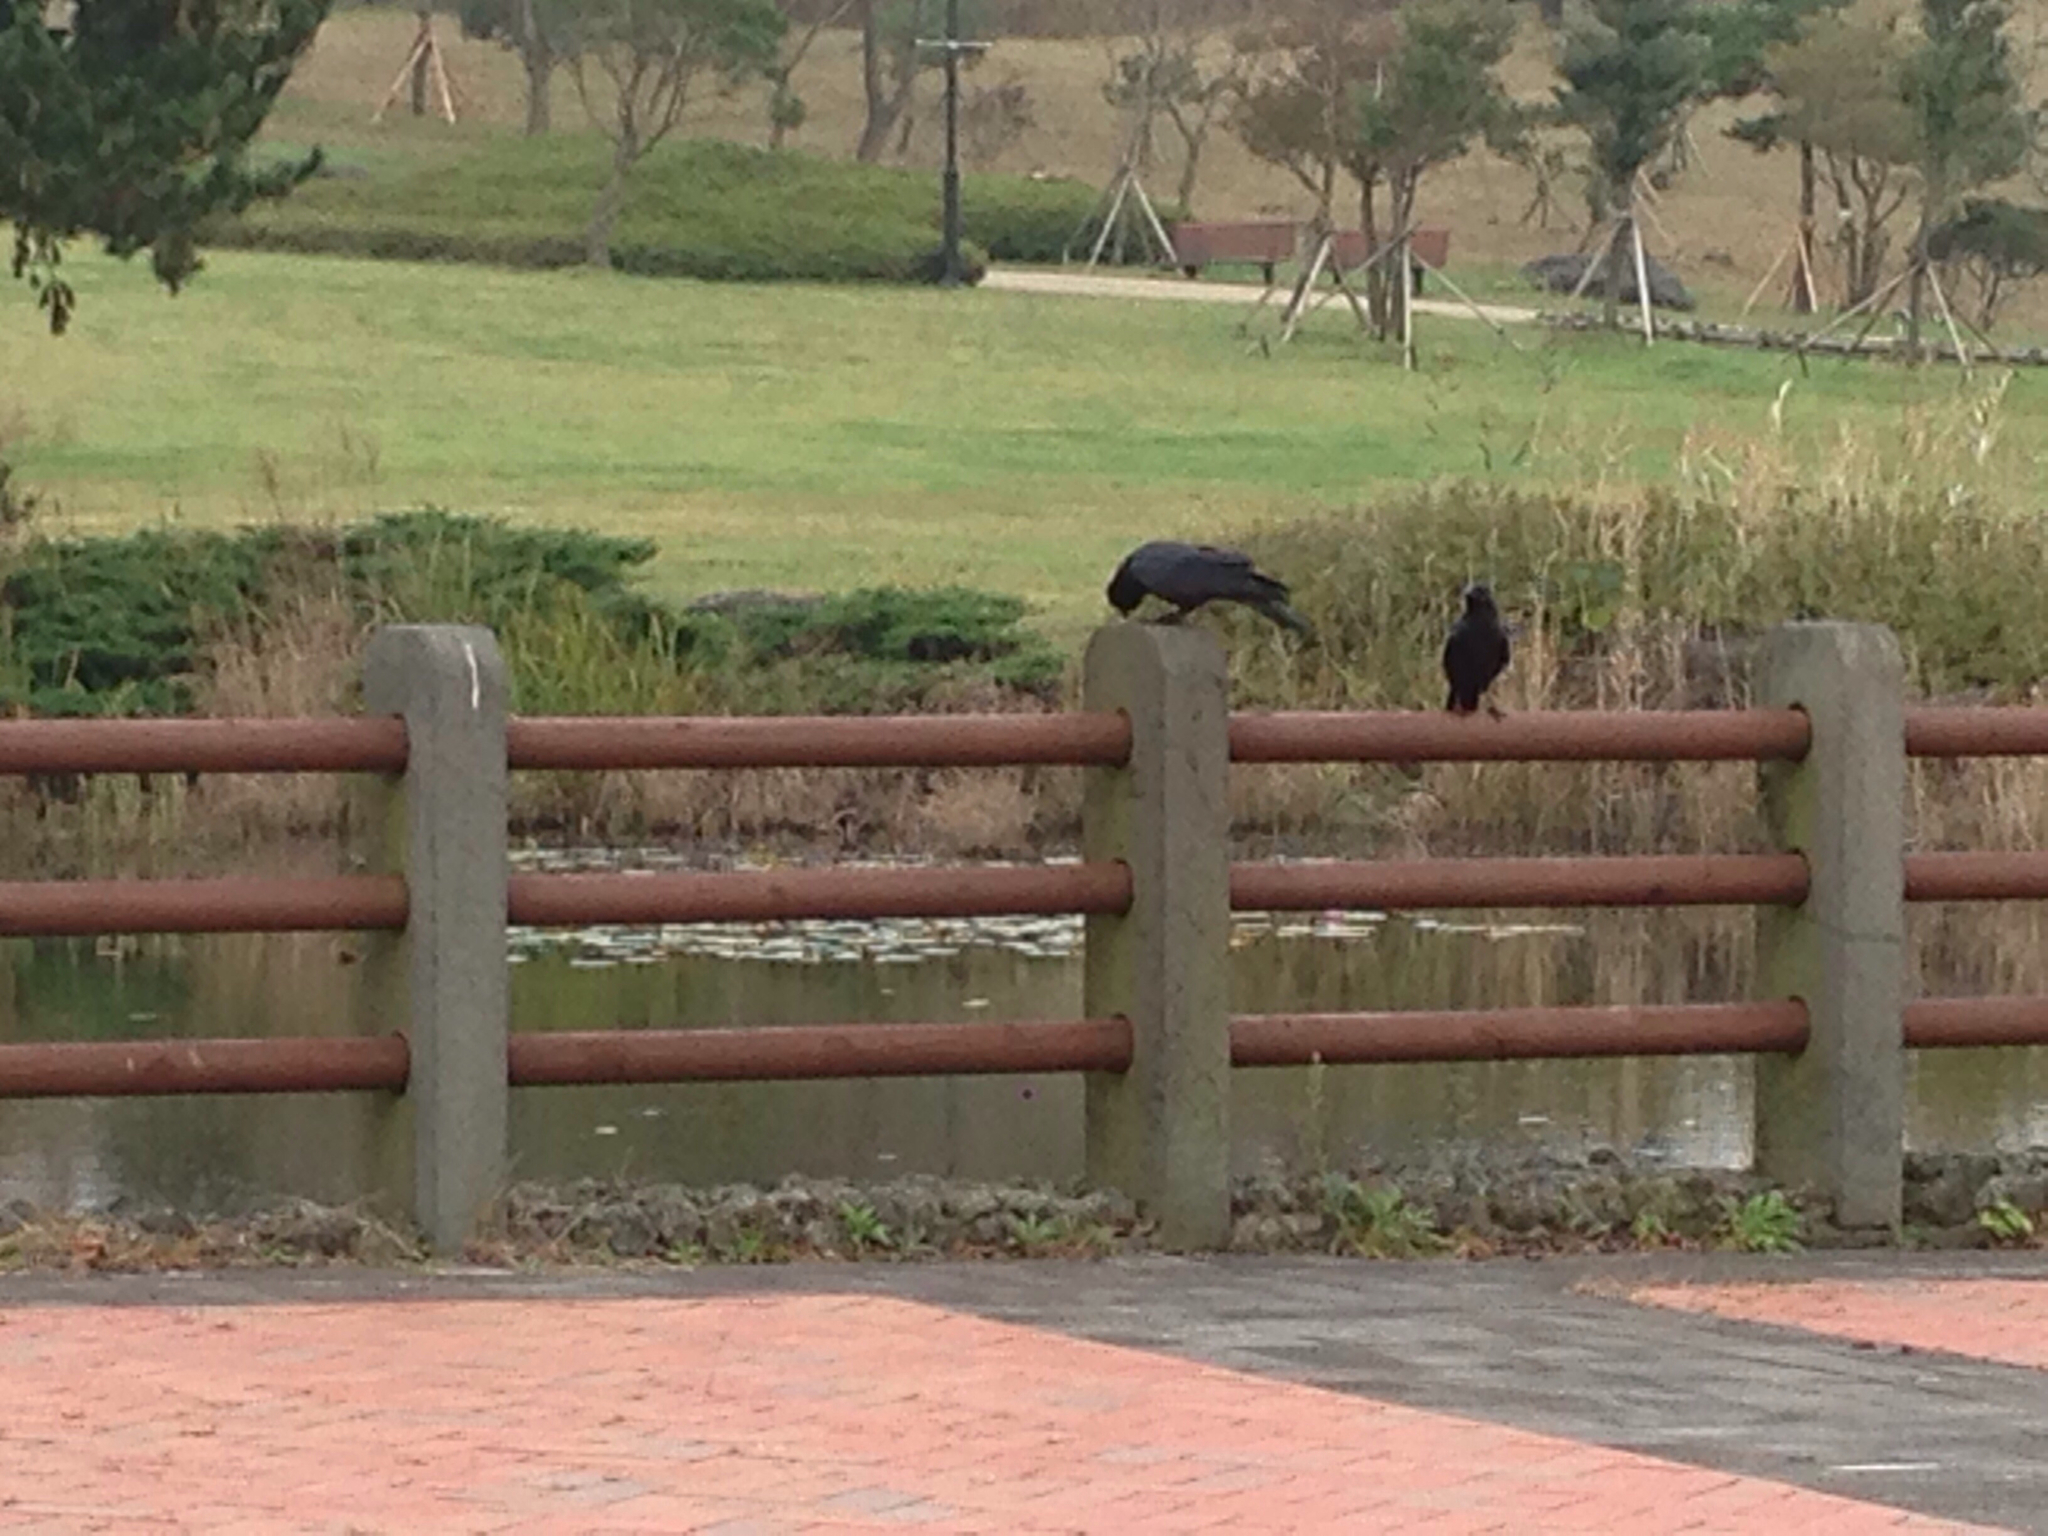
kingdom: Animalia
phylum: Chordata
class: Aves
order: Passeriformes
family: Corvidae
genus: Corvus
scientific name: Corvus macrorhynchos
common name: Large-billed crow
